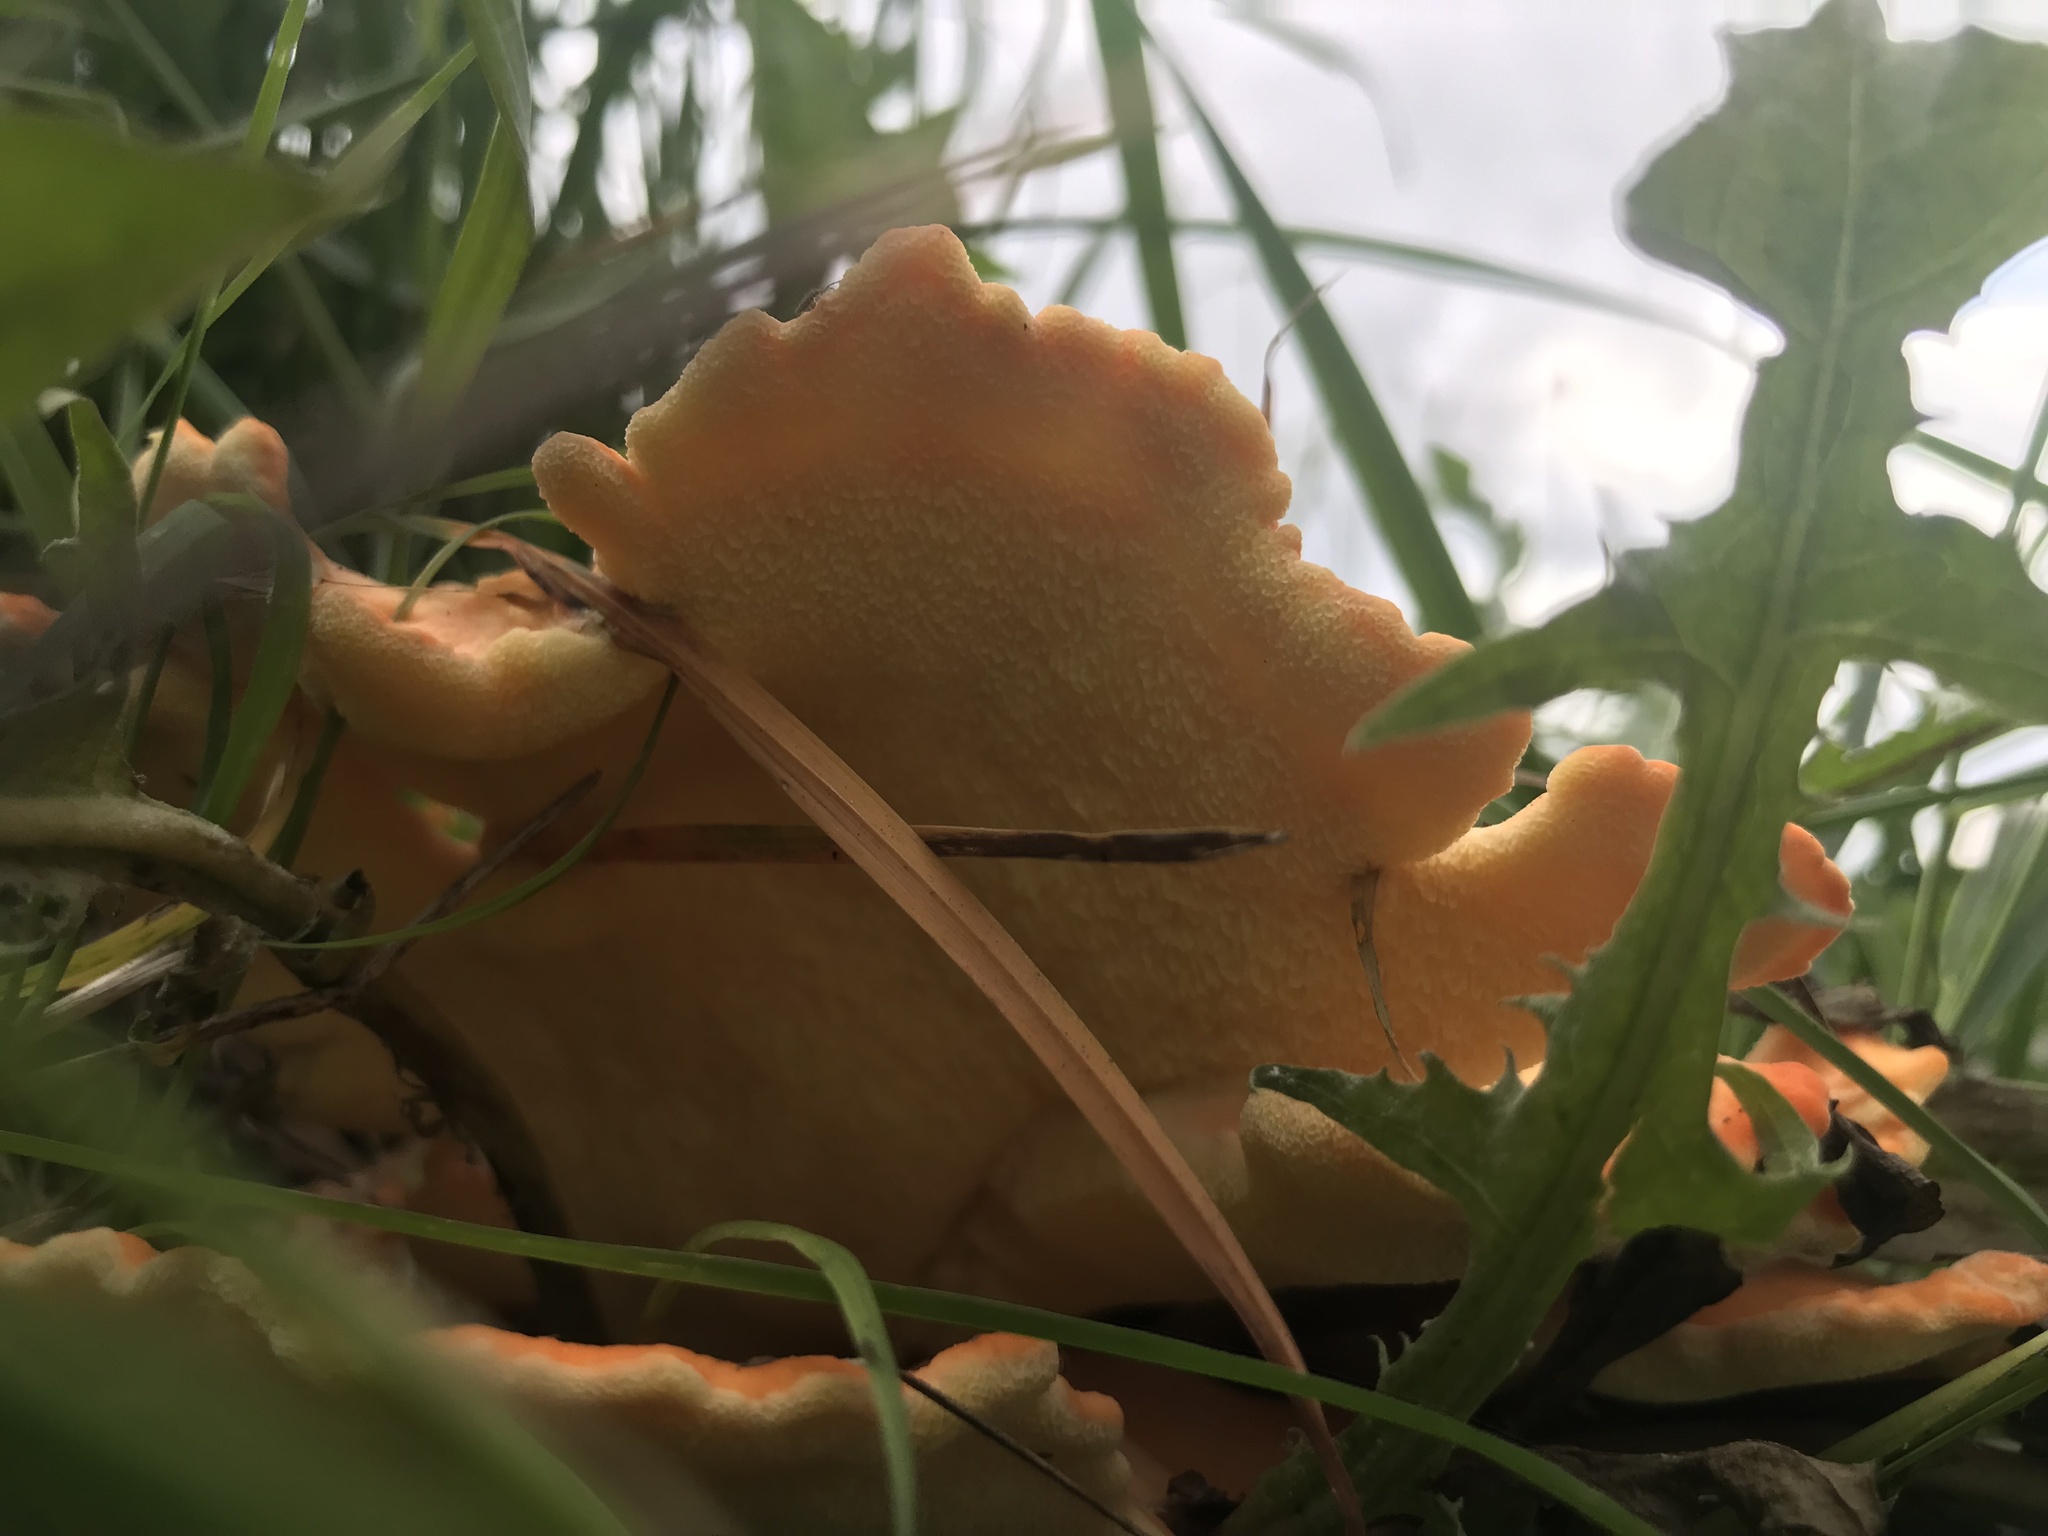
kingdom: Fungi
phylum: Basidiomycota
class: Agaricomycetes
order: Polyporales
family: Laetiporaceae
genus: Laetiporus
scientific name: Laetiporus sulphureus
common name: Chicken of the woods
